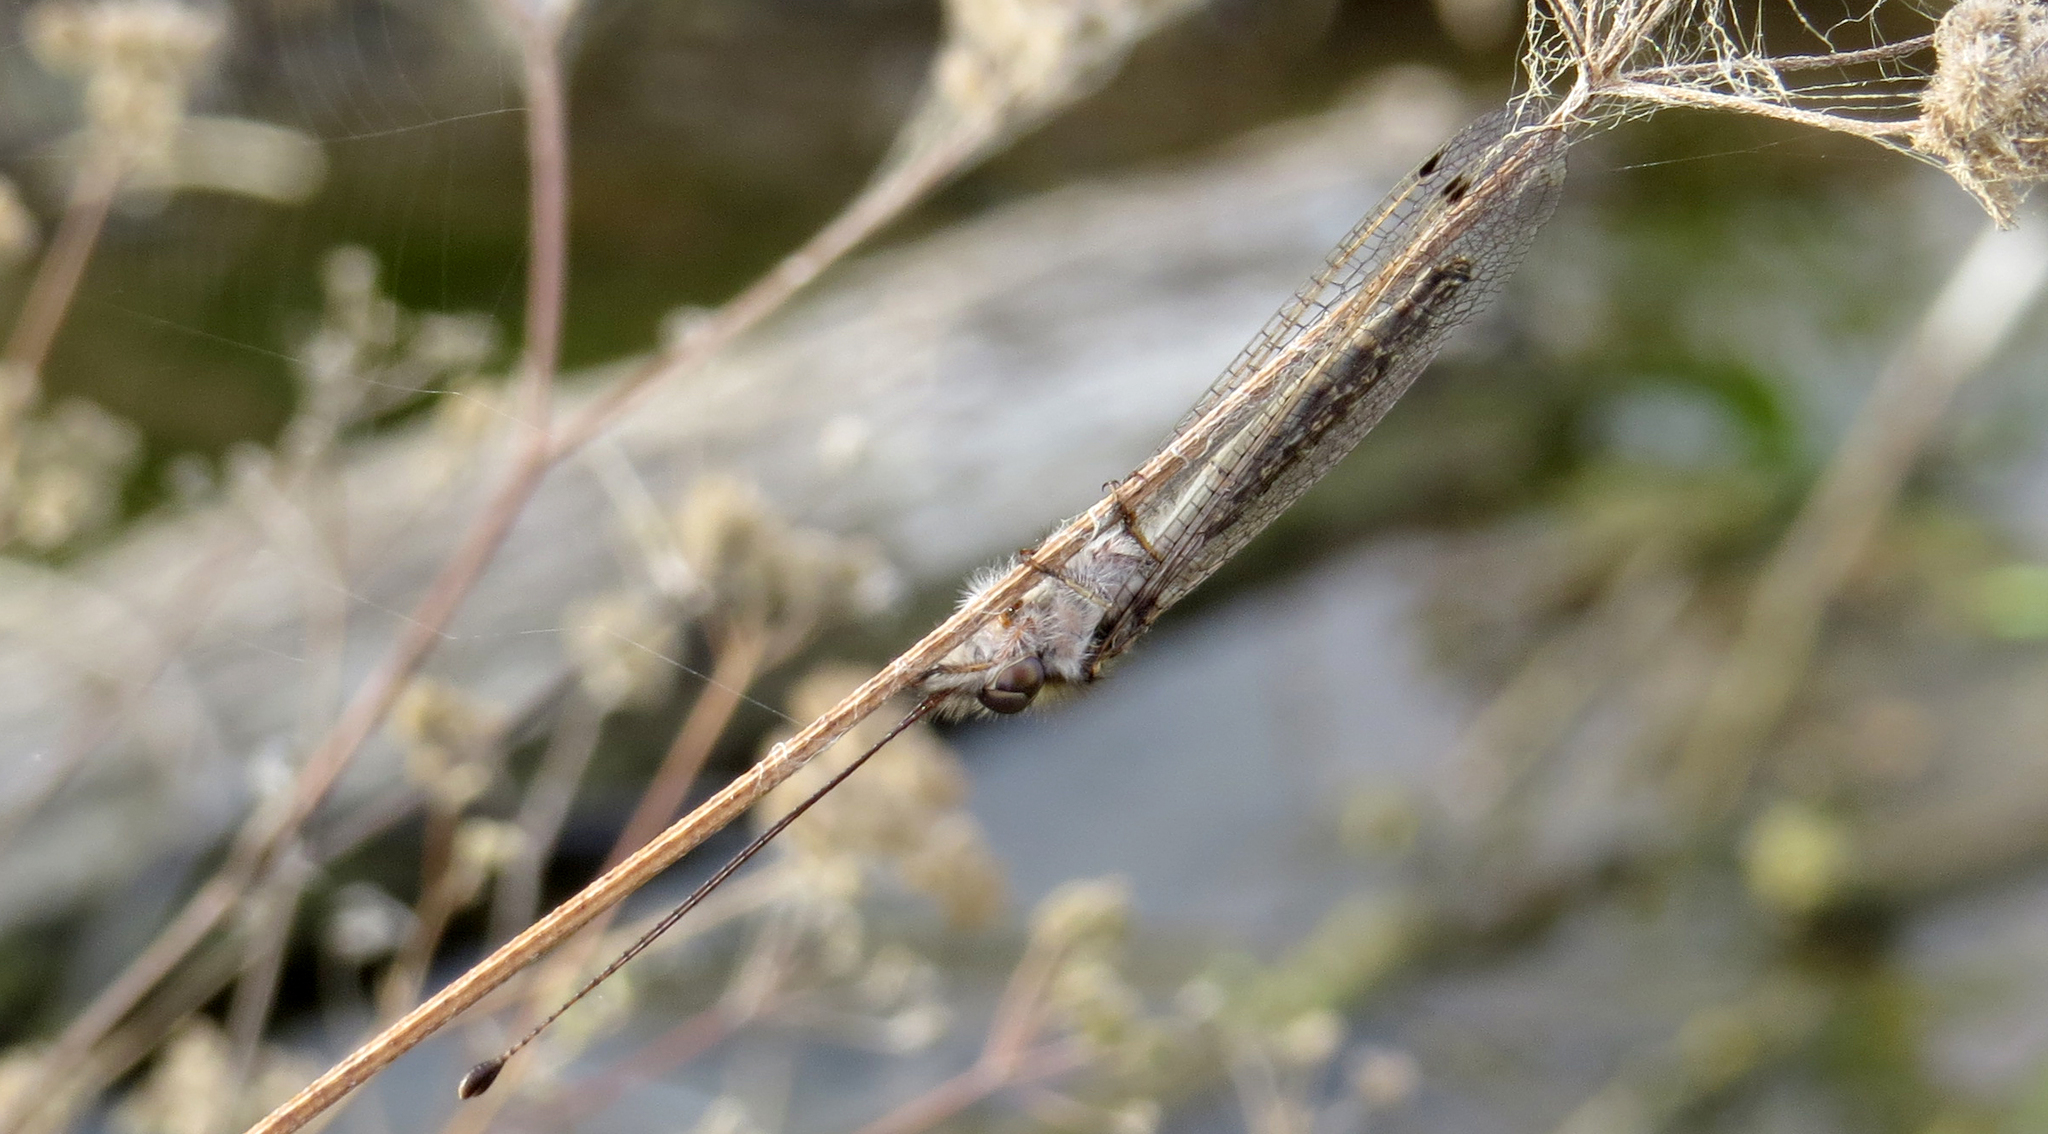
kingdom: Animalia
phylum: Arthropoda
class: Insecta
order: Neuroptera
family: Ascalaphidae
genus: Ululodes
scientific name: Ululodes macleayanus
